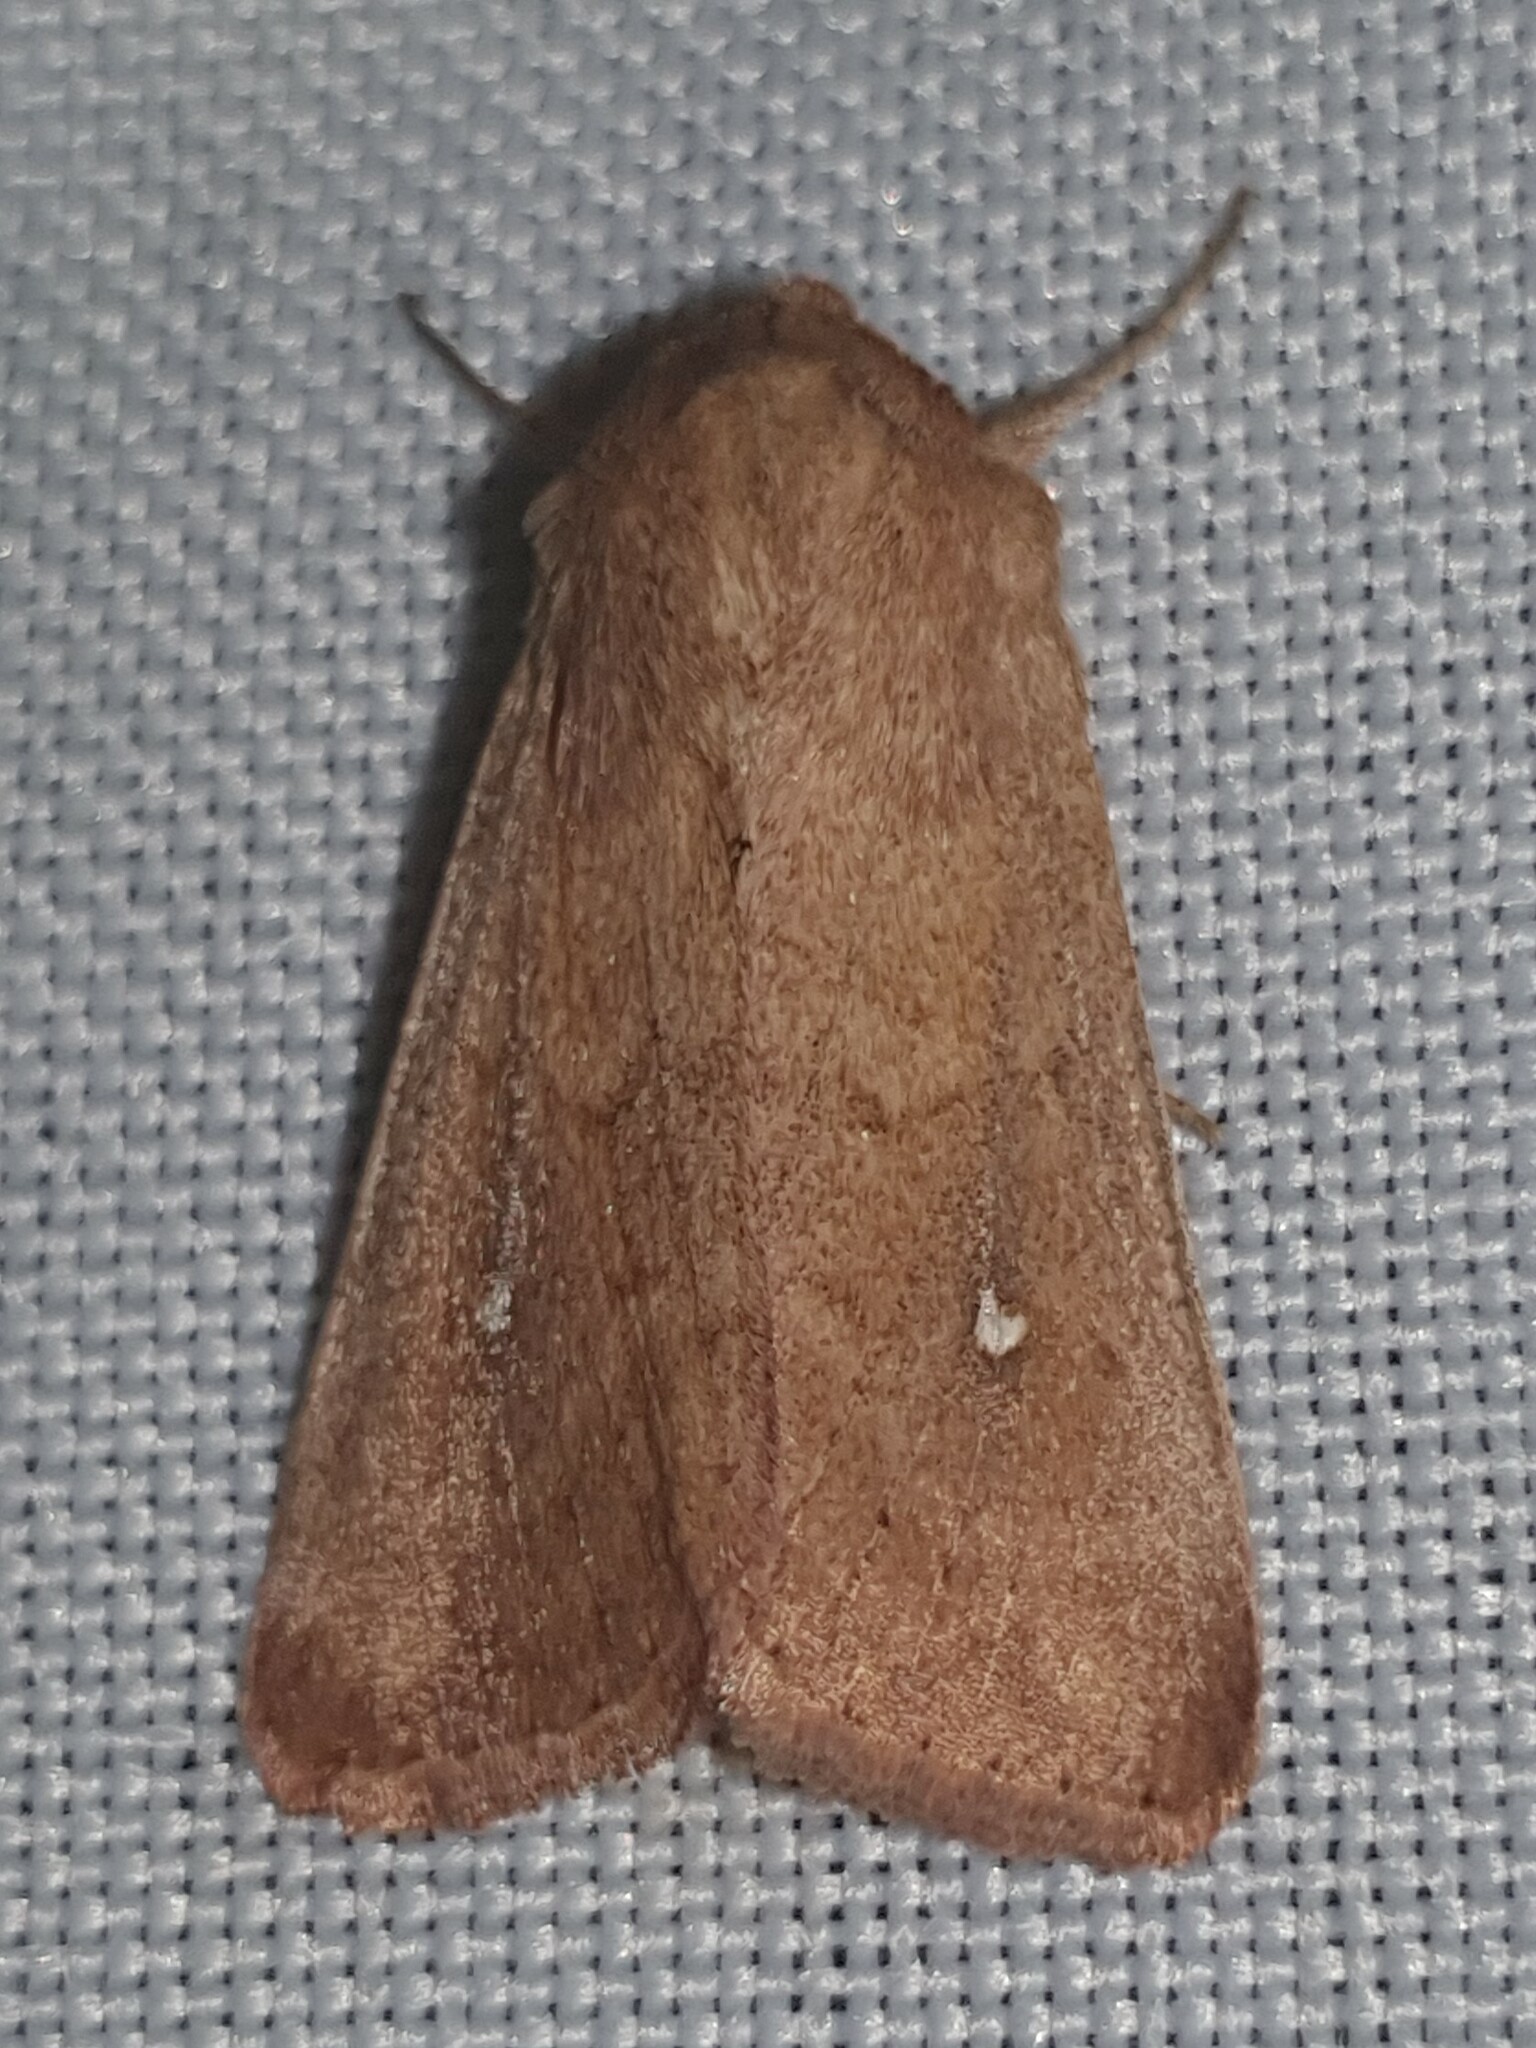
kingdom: Animalia
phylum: Arthropoda
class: Insecta
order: Lepidoptera
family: Noctuidae
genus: Mythimna
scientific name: Mythimna albipuncta
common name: White-point
